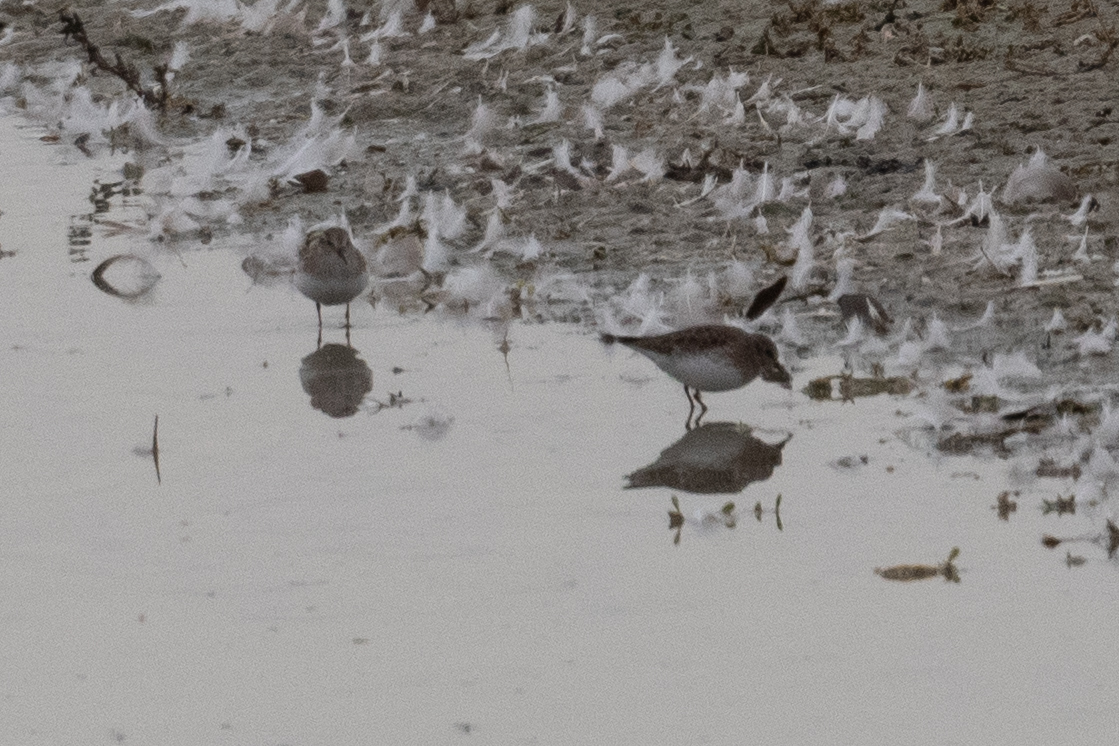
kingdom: Animalia
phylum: Chordata
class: Aves
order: Charadriiformes
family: Scolopacidae
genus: Calidris
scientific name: Calidris minutilla
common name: Least sandpiper
